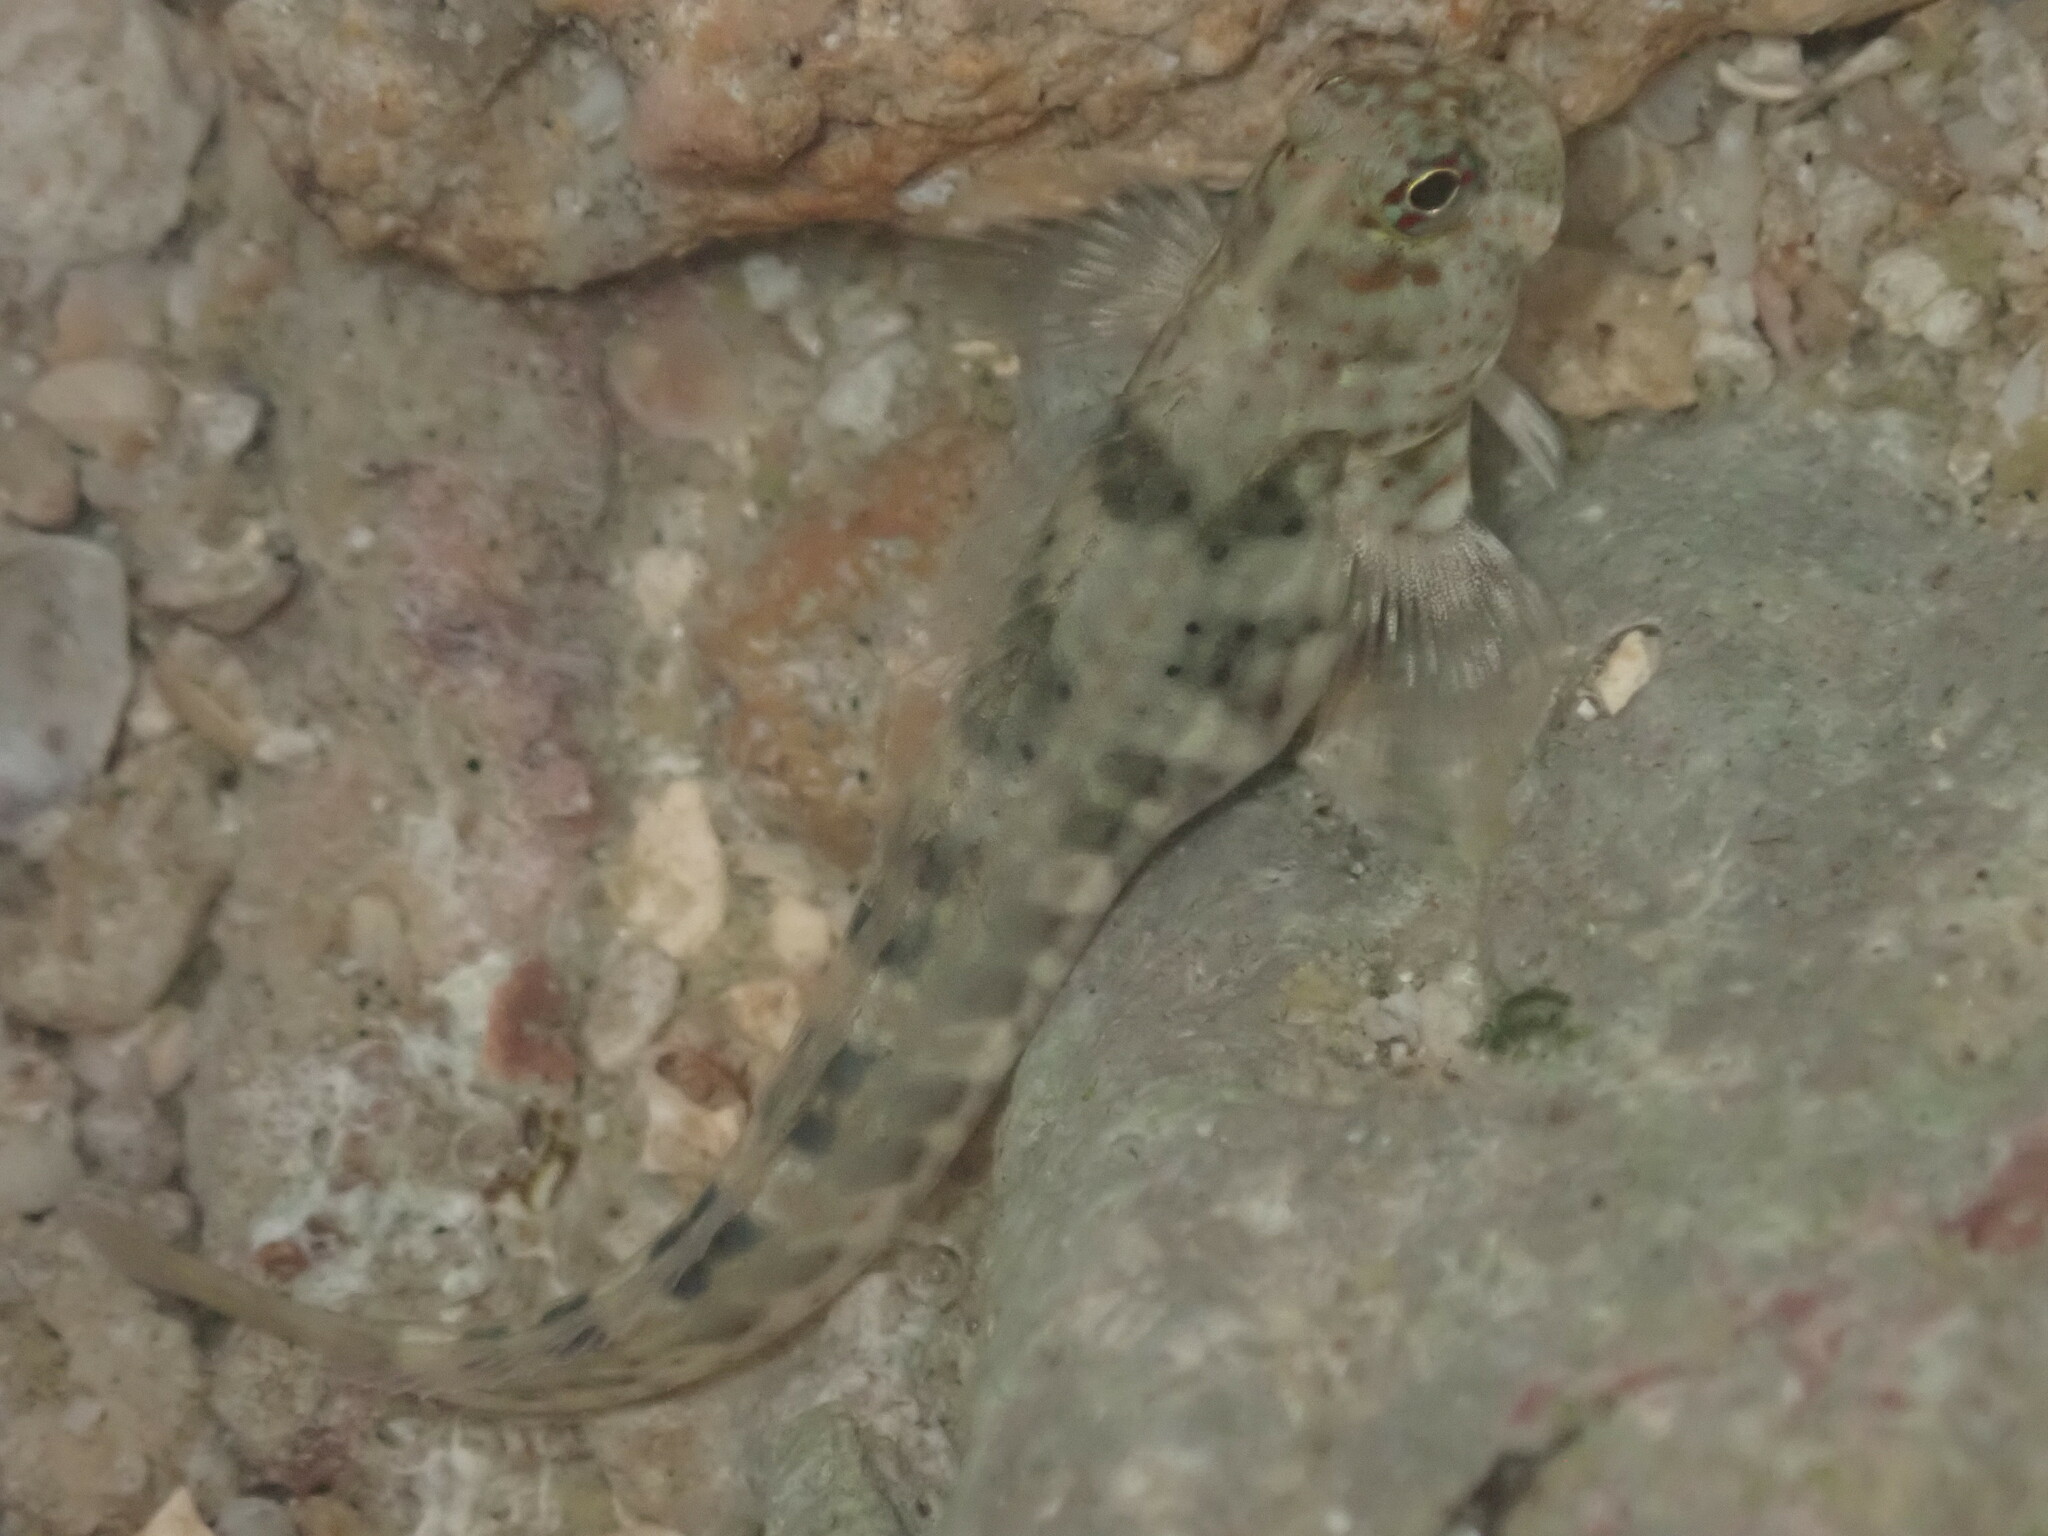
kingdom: Animalia
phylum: Chordata
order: Perciformes
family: Blenniidae
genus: Istiblennius
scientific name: Istiblennius dussumieri
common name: Dussumier's rockskipper
